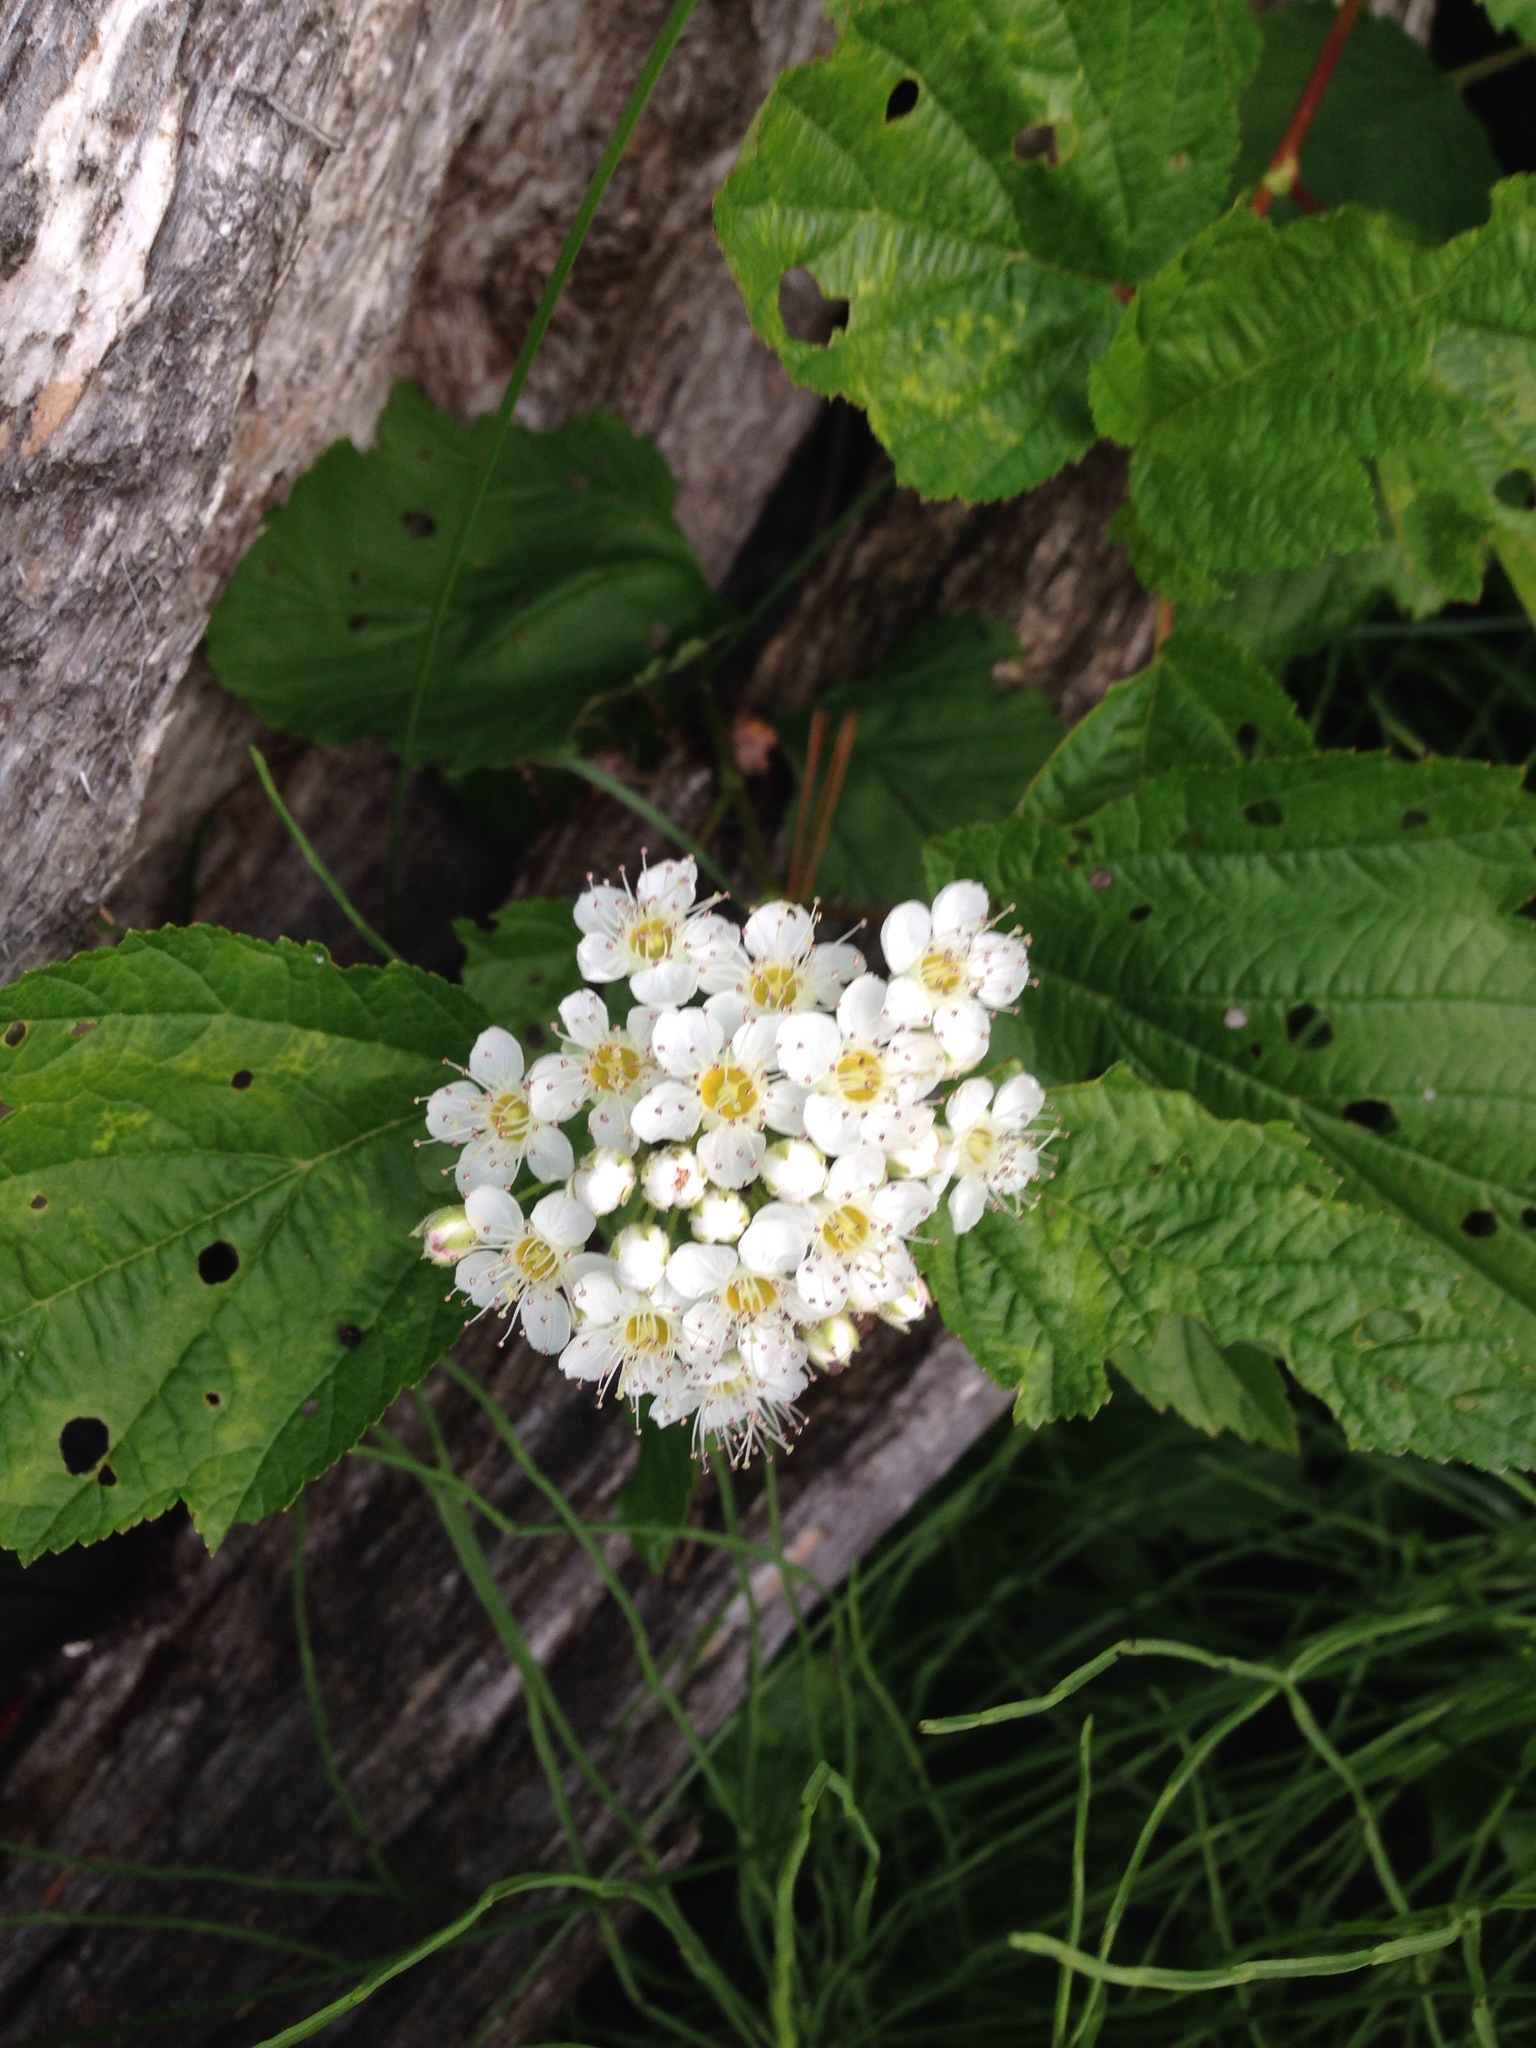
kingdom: Plantae
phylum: Tracheophyta
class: Magnoliopsida
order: Rosales
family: Rosaceae
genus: Physocarpus
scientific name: Physocarpus opulifolius
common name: Ninebark
